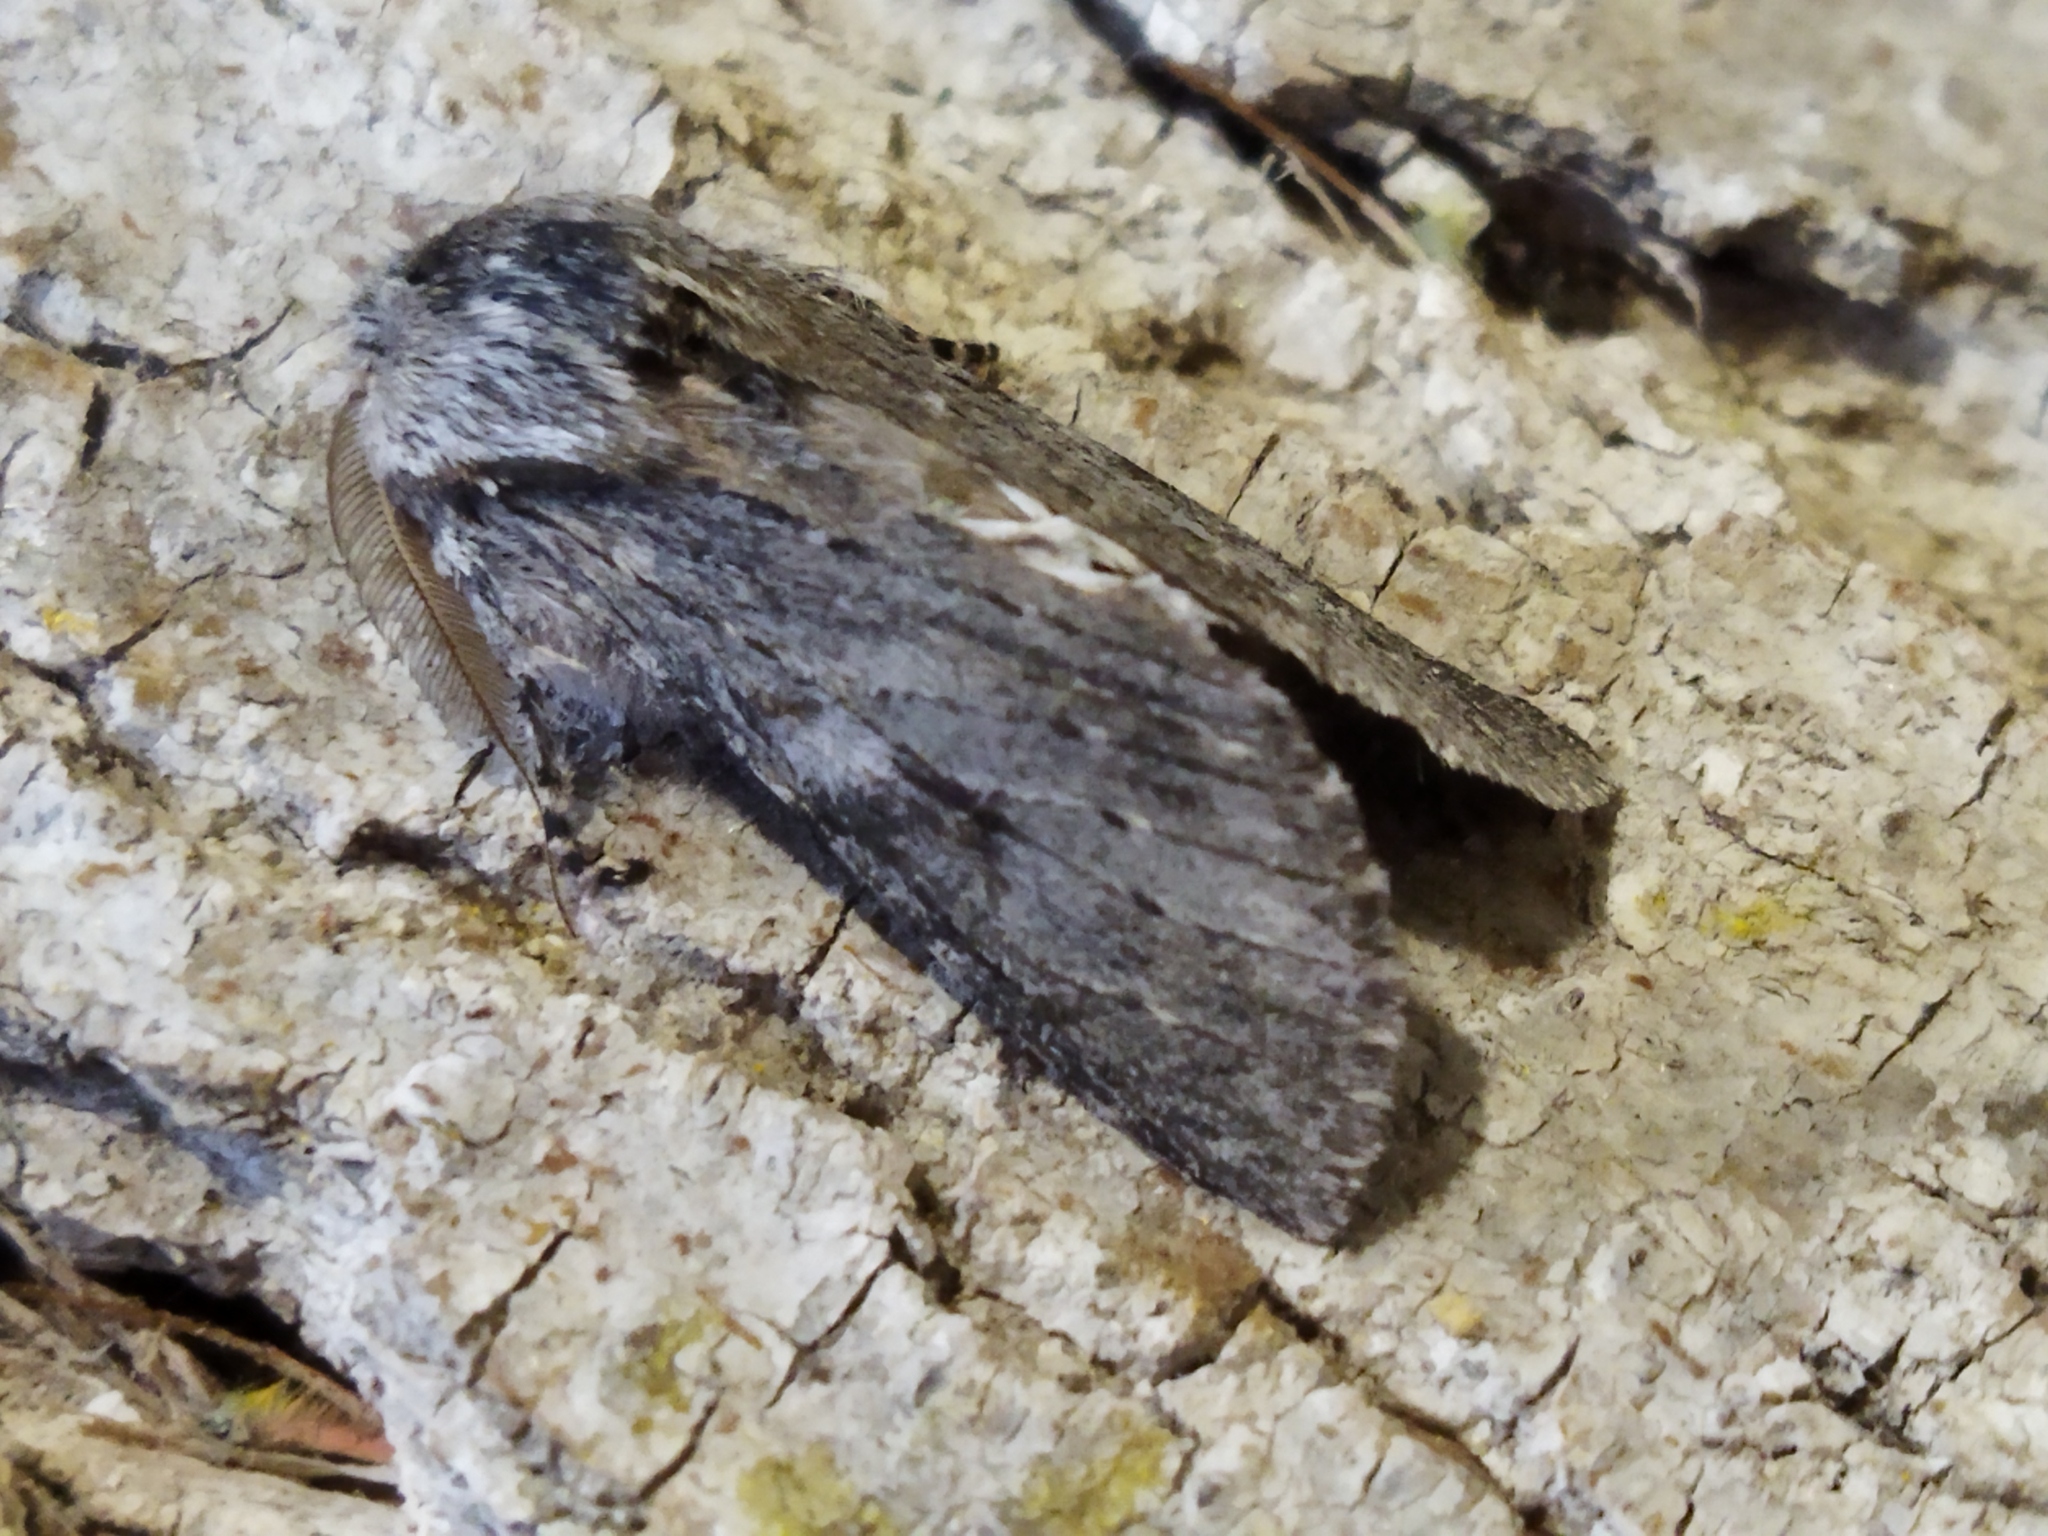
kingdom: Animalia
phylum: Arthropoda
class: Insecta
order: Lepidoptera
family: Notodontidae
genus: Dicranura
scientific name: Dicranura ulmi
